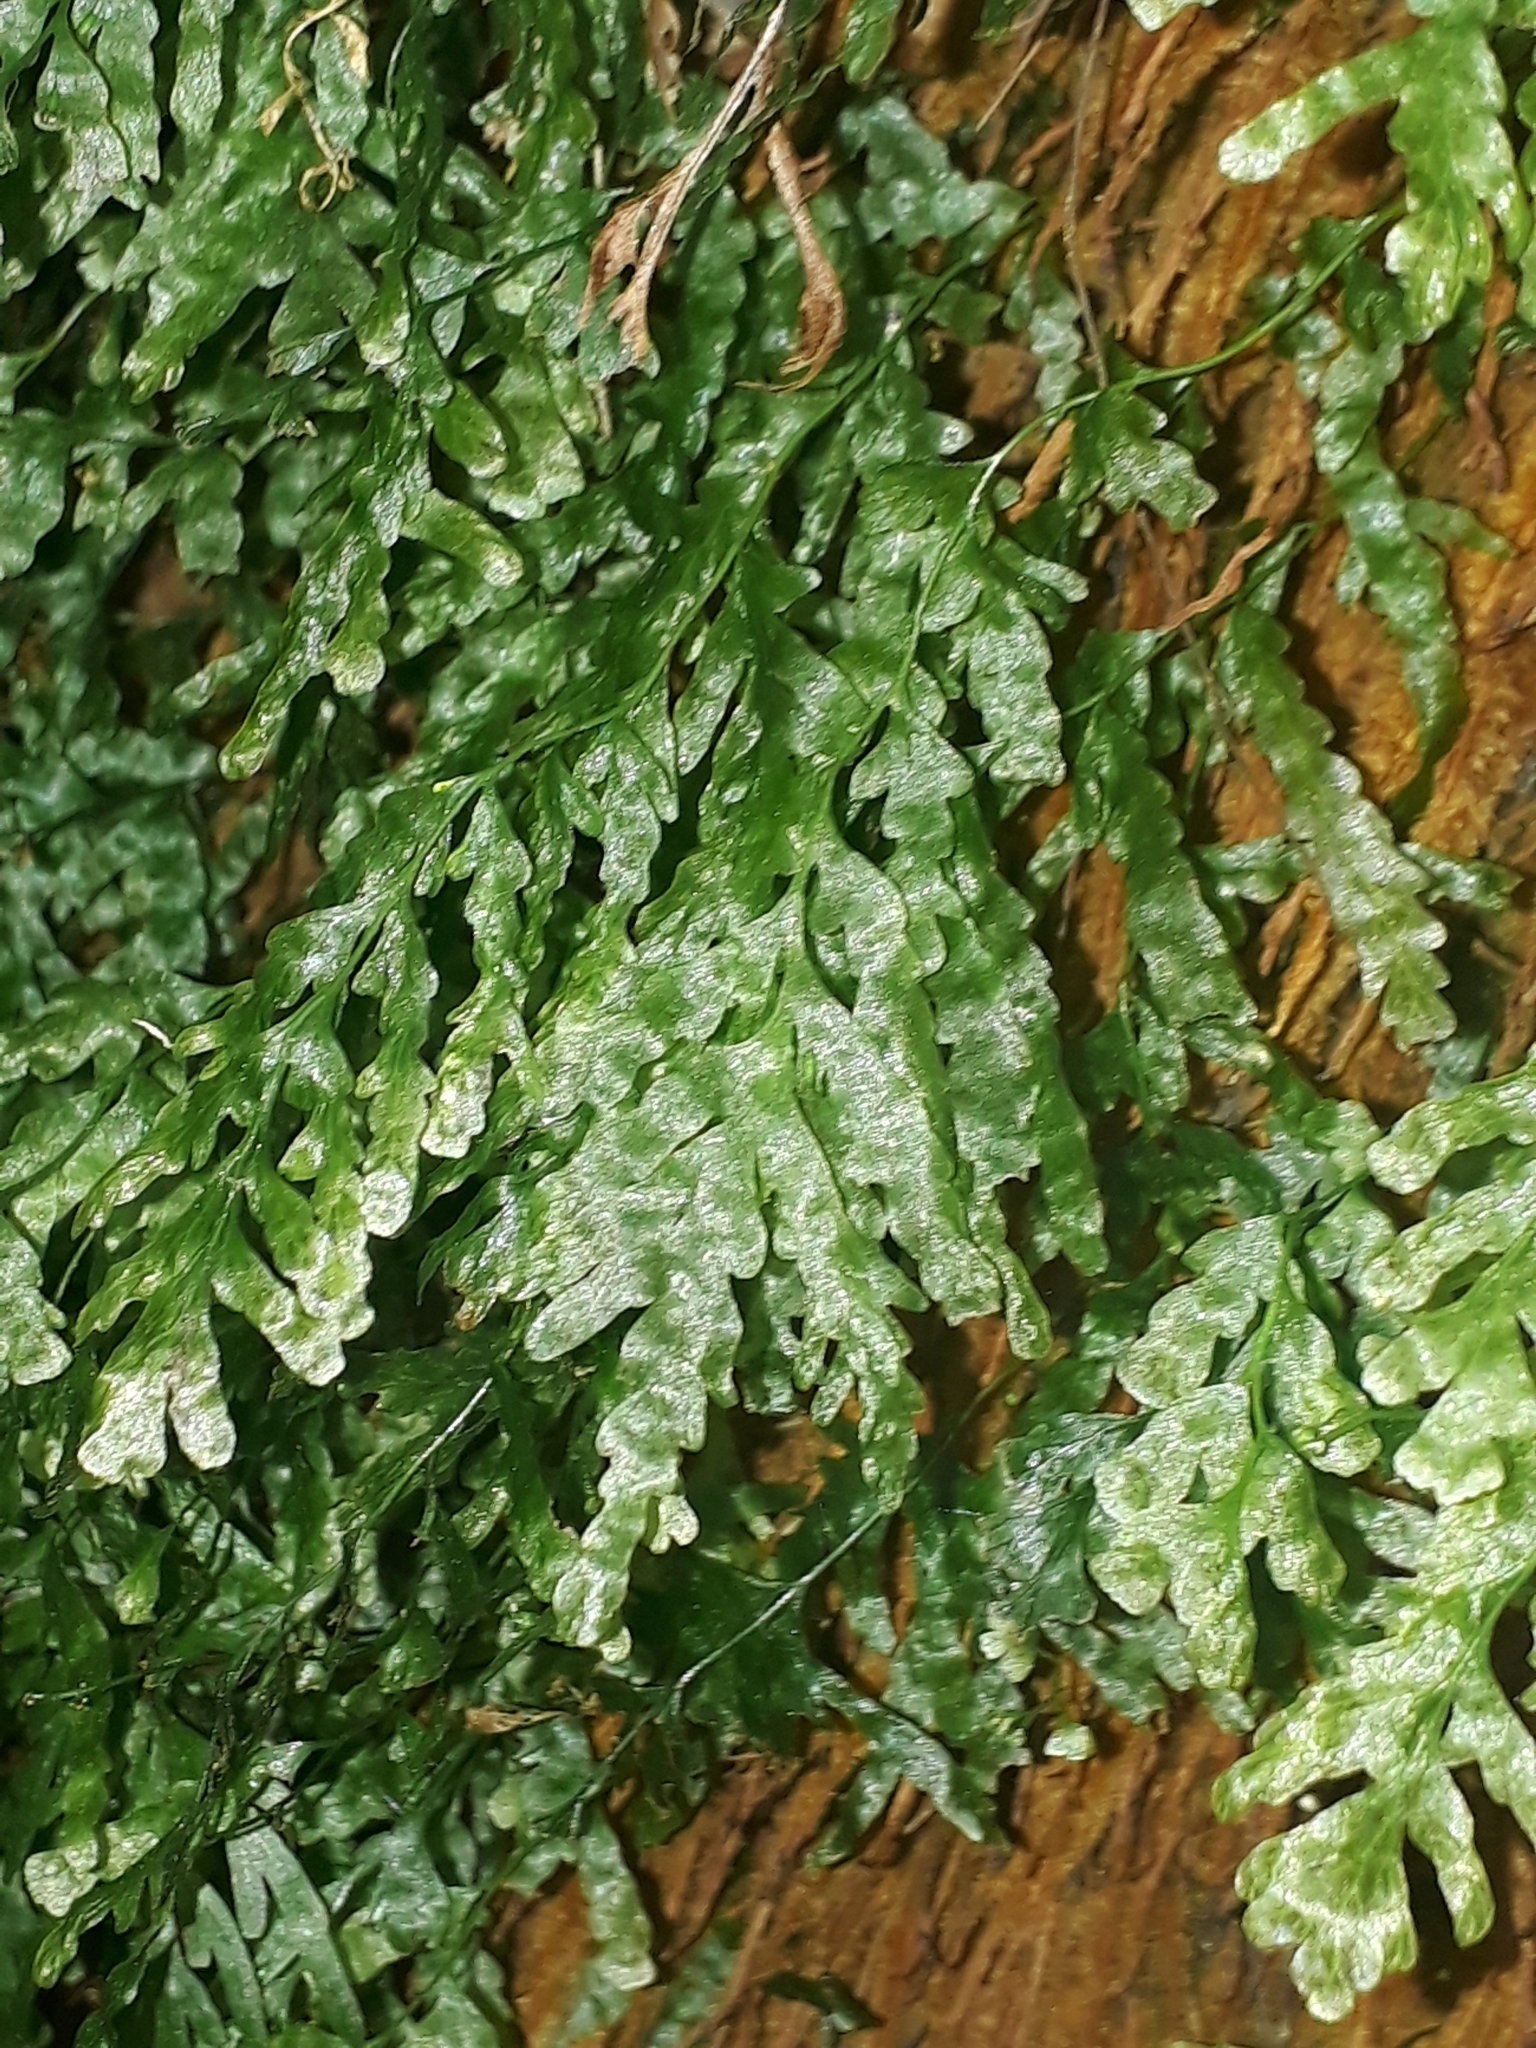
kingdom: Plantae
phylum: Tracheophyta
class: Polypodiopsida
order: Hymenophyllales
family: Hymenophyllaceae
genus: Polyphlebium
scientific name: Polyphlebium venosum
